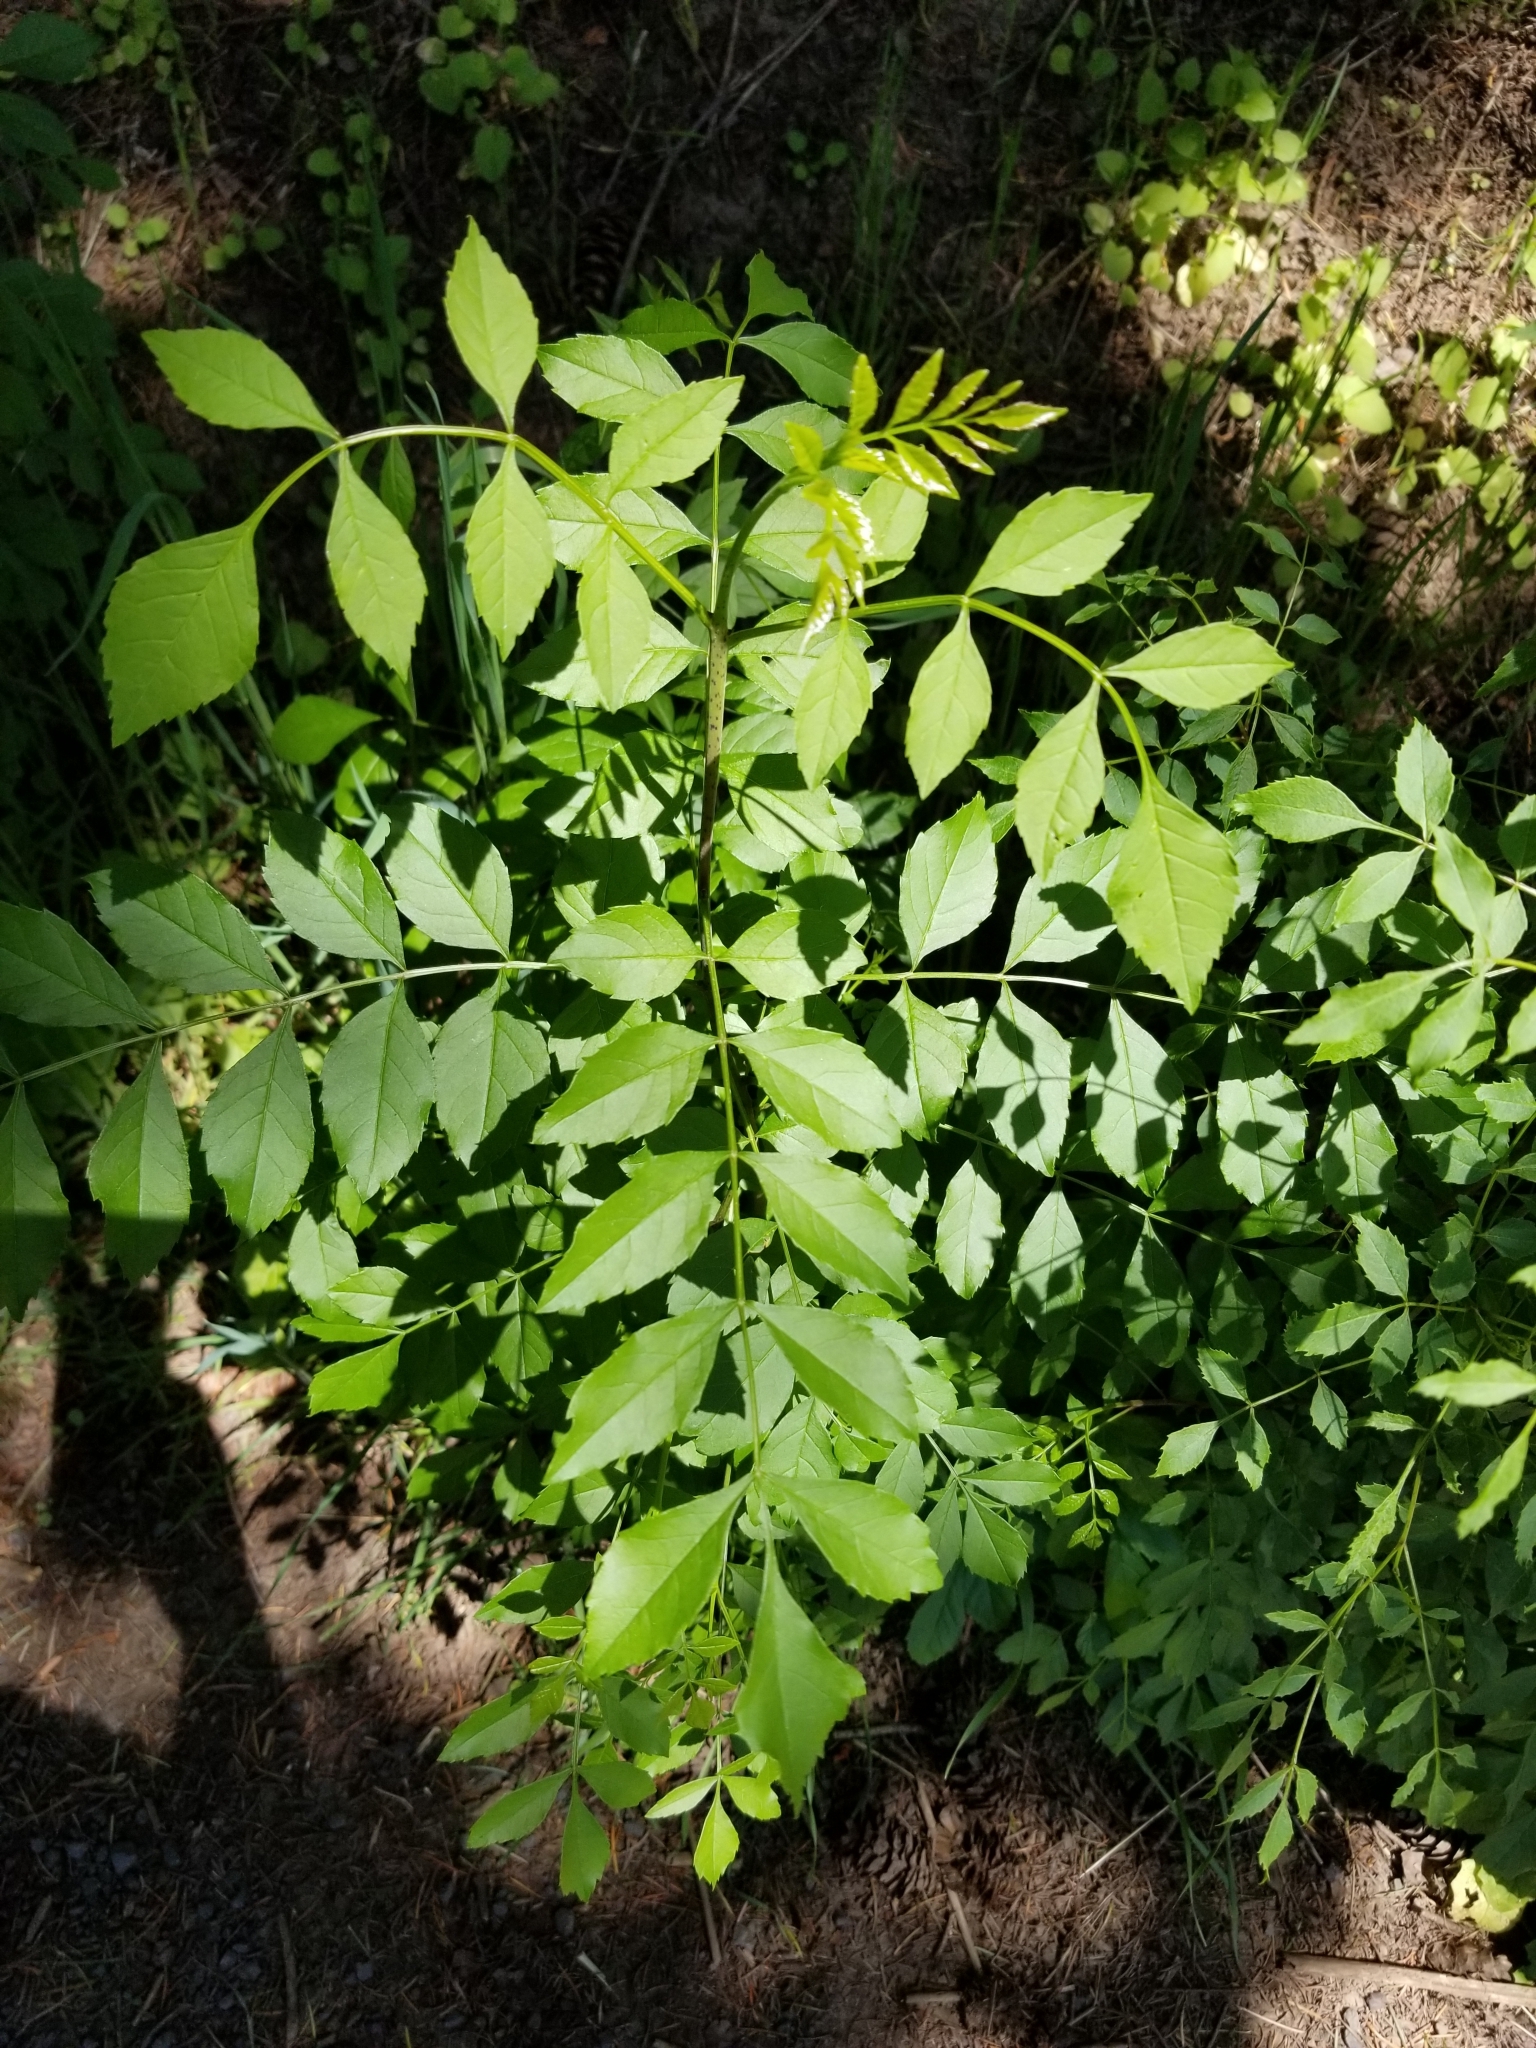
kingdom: Plantae
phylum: Tracheophyta
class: Magnoliopsida
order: Lamiales
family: Oleaceae
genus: Fraxinus
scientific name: Fraxinus latifolia
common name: Oregon ash
